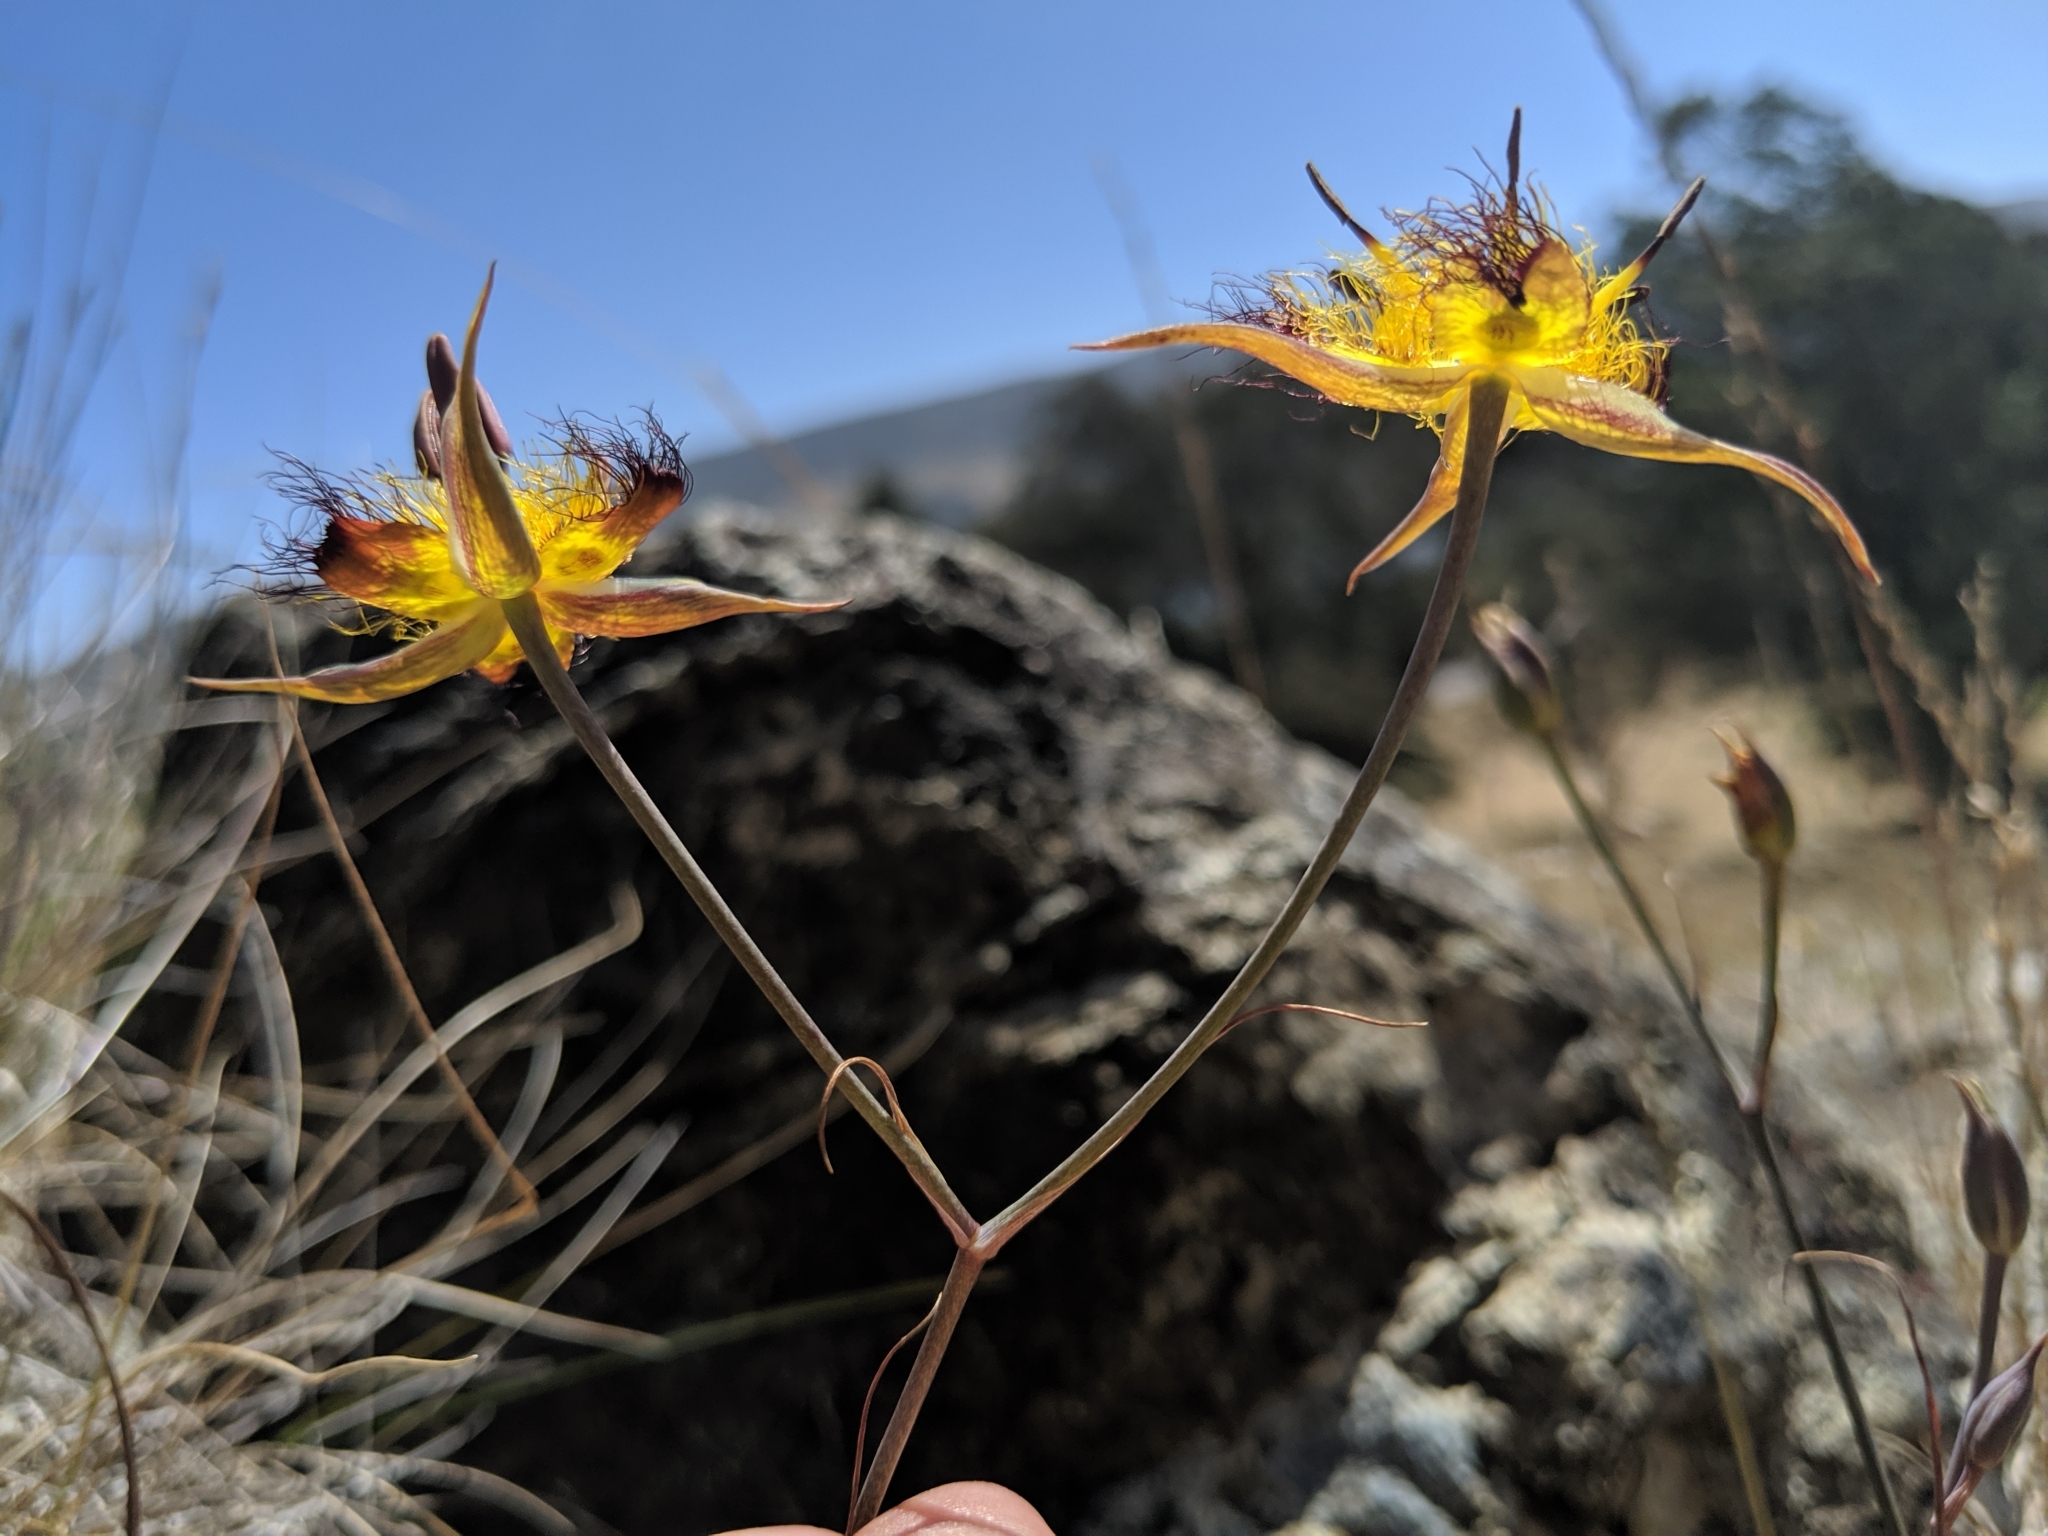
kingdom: Plantae
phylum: Tracheophyta
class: Liliopsida
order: Liliales
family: Liliaceae
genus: Calochortus
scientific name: Calochortus obispoensis
